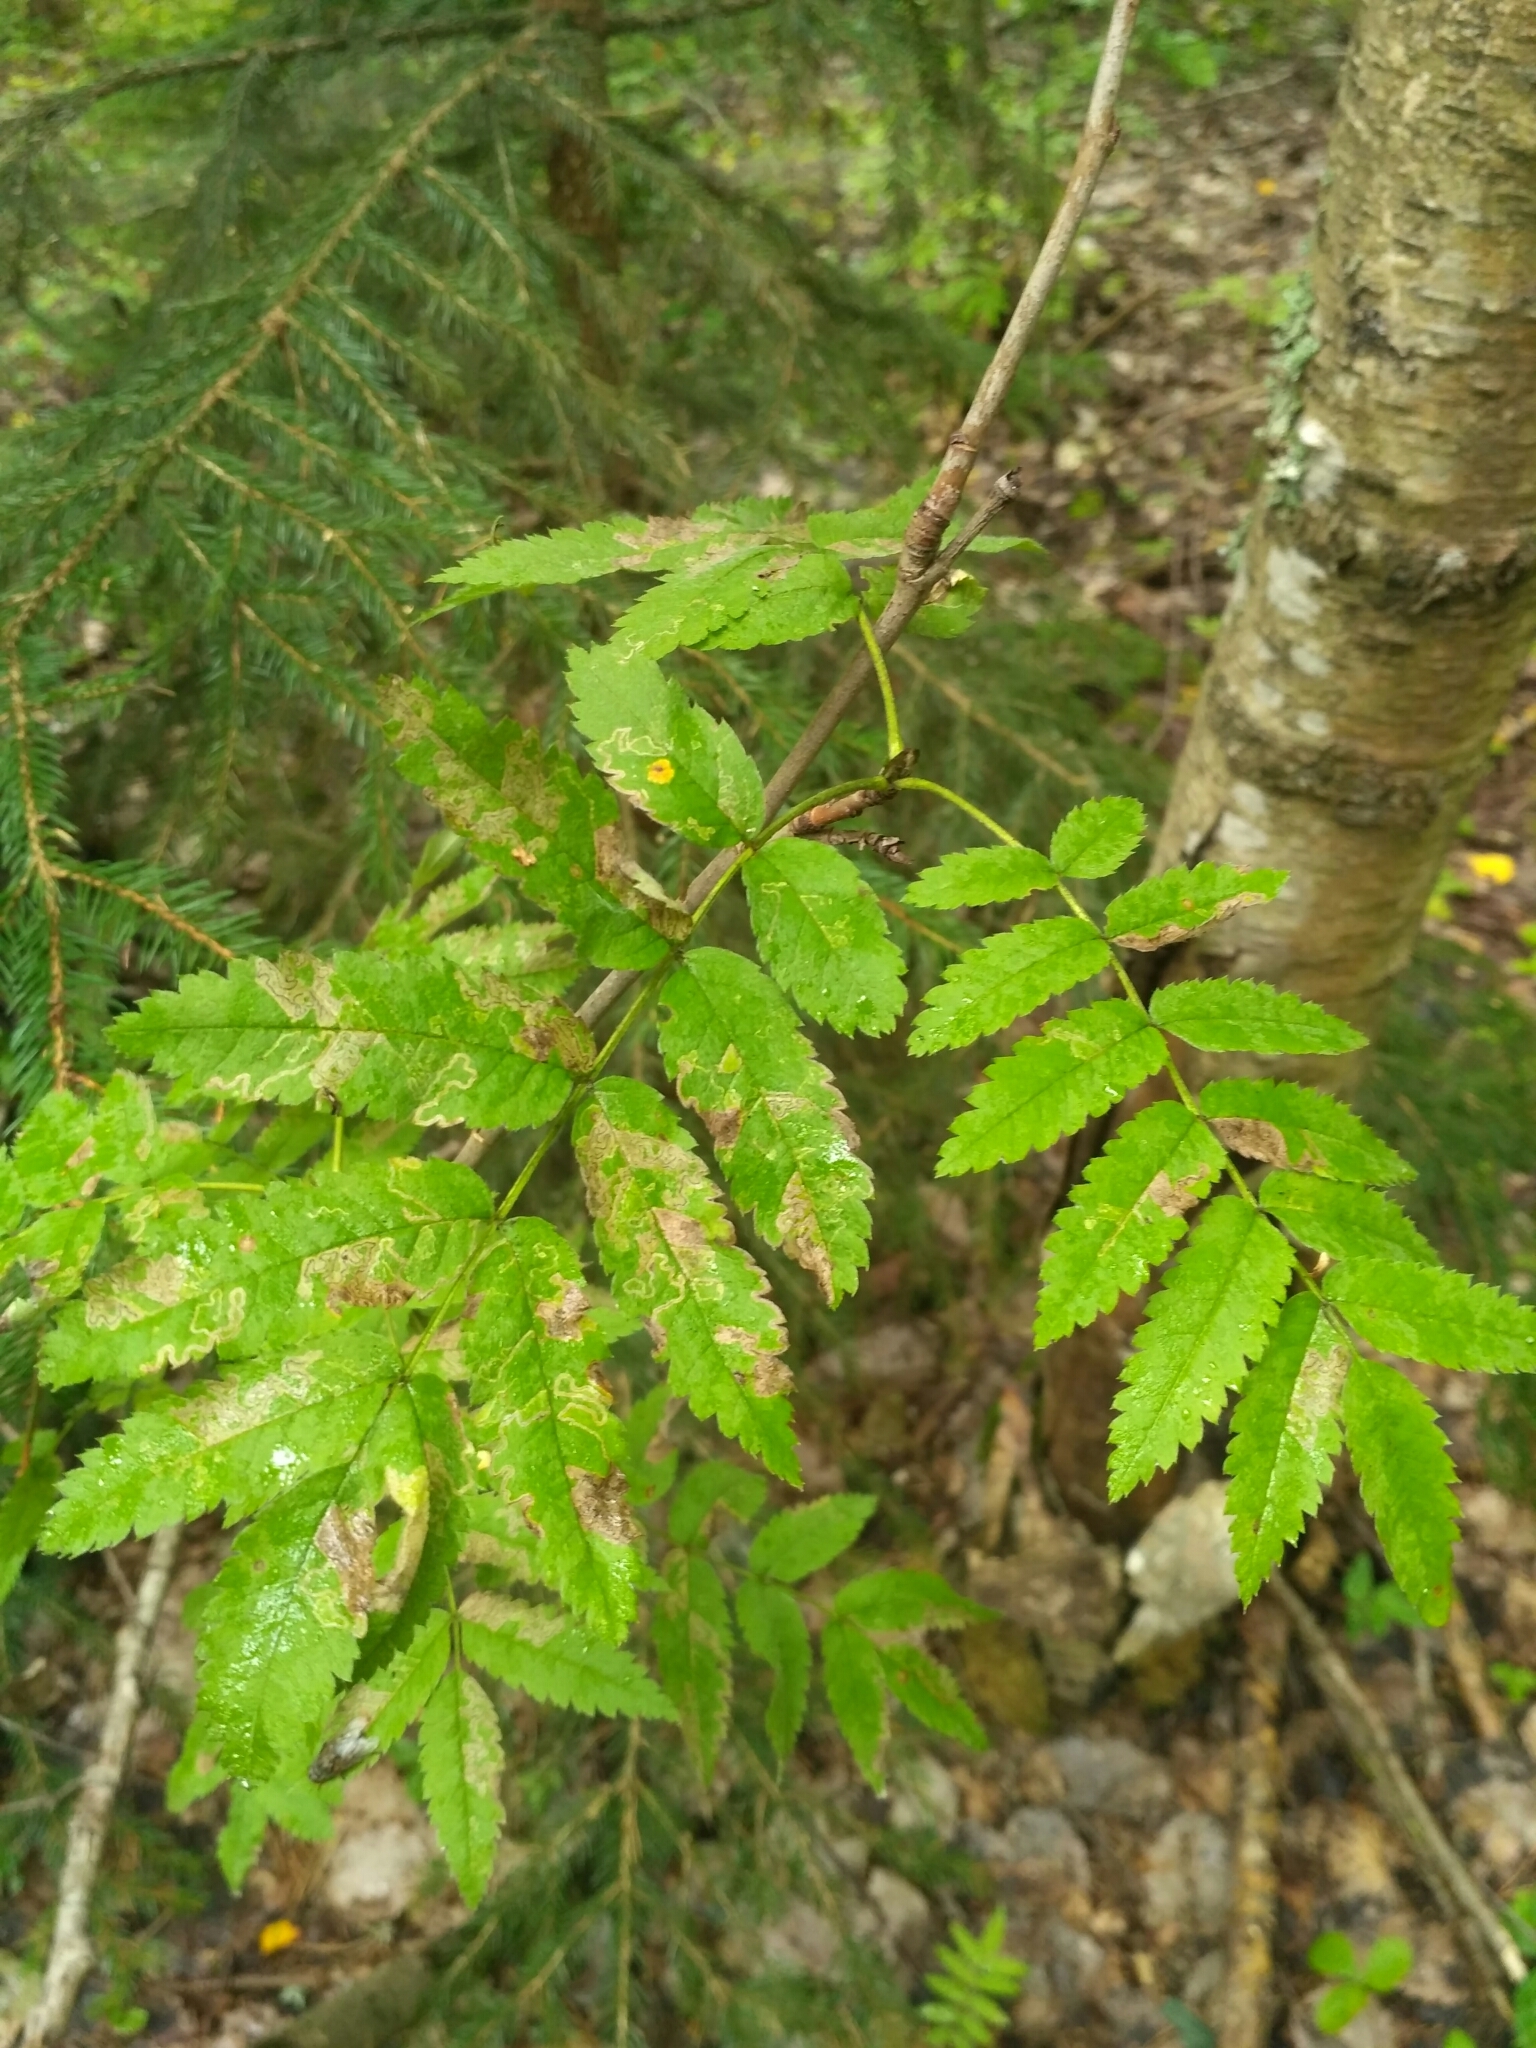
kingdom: Plantae
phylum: Tracheophyta
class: Magnoliopsida
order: Rosales
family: Rosaceae
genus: Sorbus
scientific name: Sorbus aucuparia
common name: Rowan
